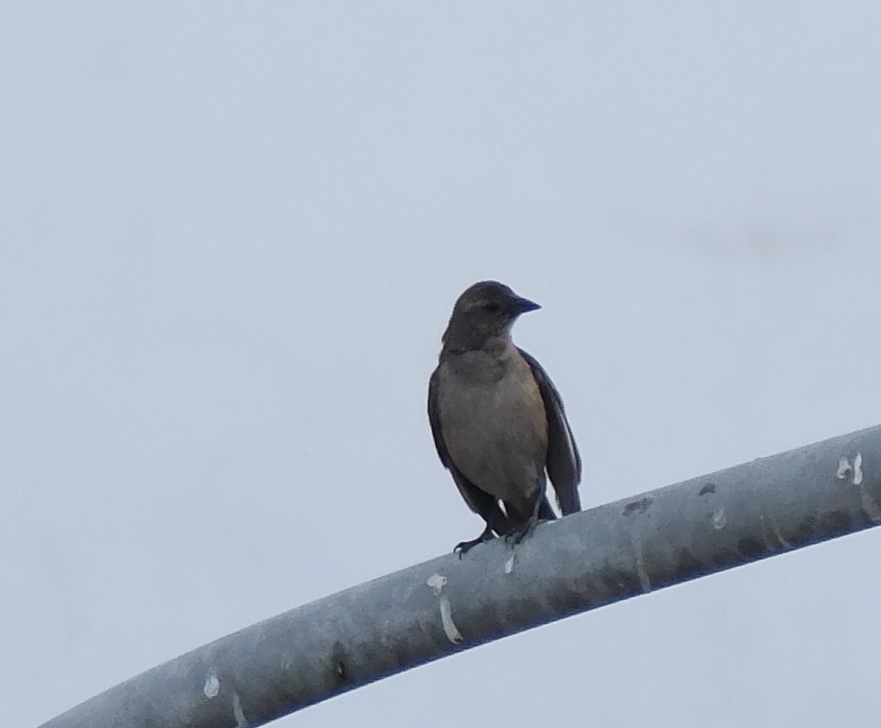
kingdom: Animalia
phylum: Chordata
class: Aves
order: Passeriformes
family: Icteridae
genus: Molothrus
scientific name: Molothrus bonariensis
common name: Shiny cowbird
